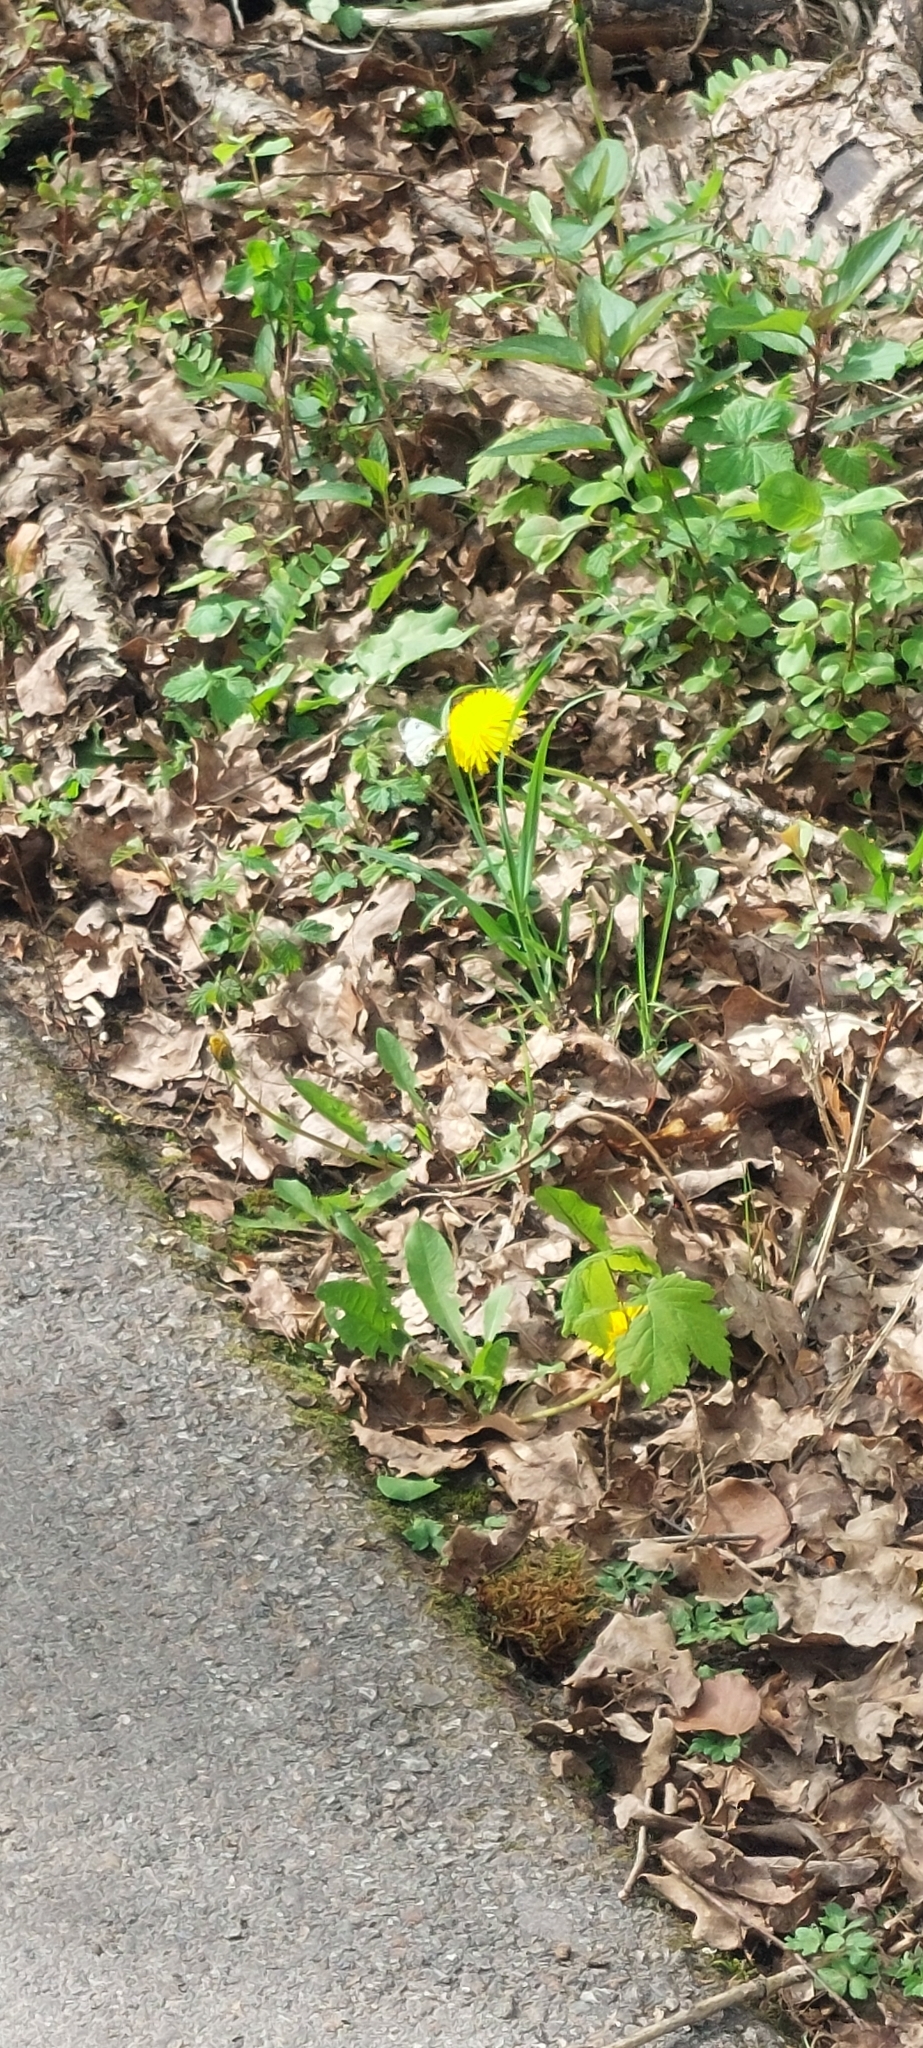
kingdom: Animalia
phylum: Arthropoda
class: Insecta
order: Lepidoptera
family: Pieridae
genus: Anthocharis
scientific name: Anthocharis cardamines
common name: Orange-tip
